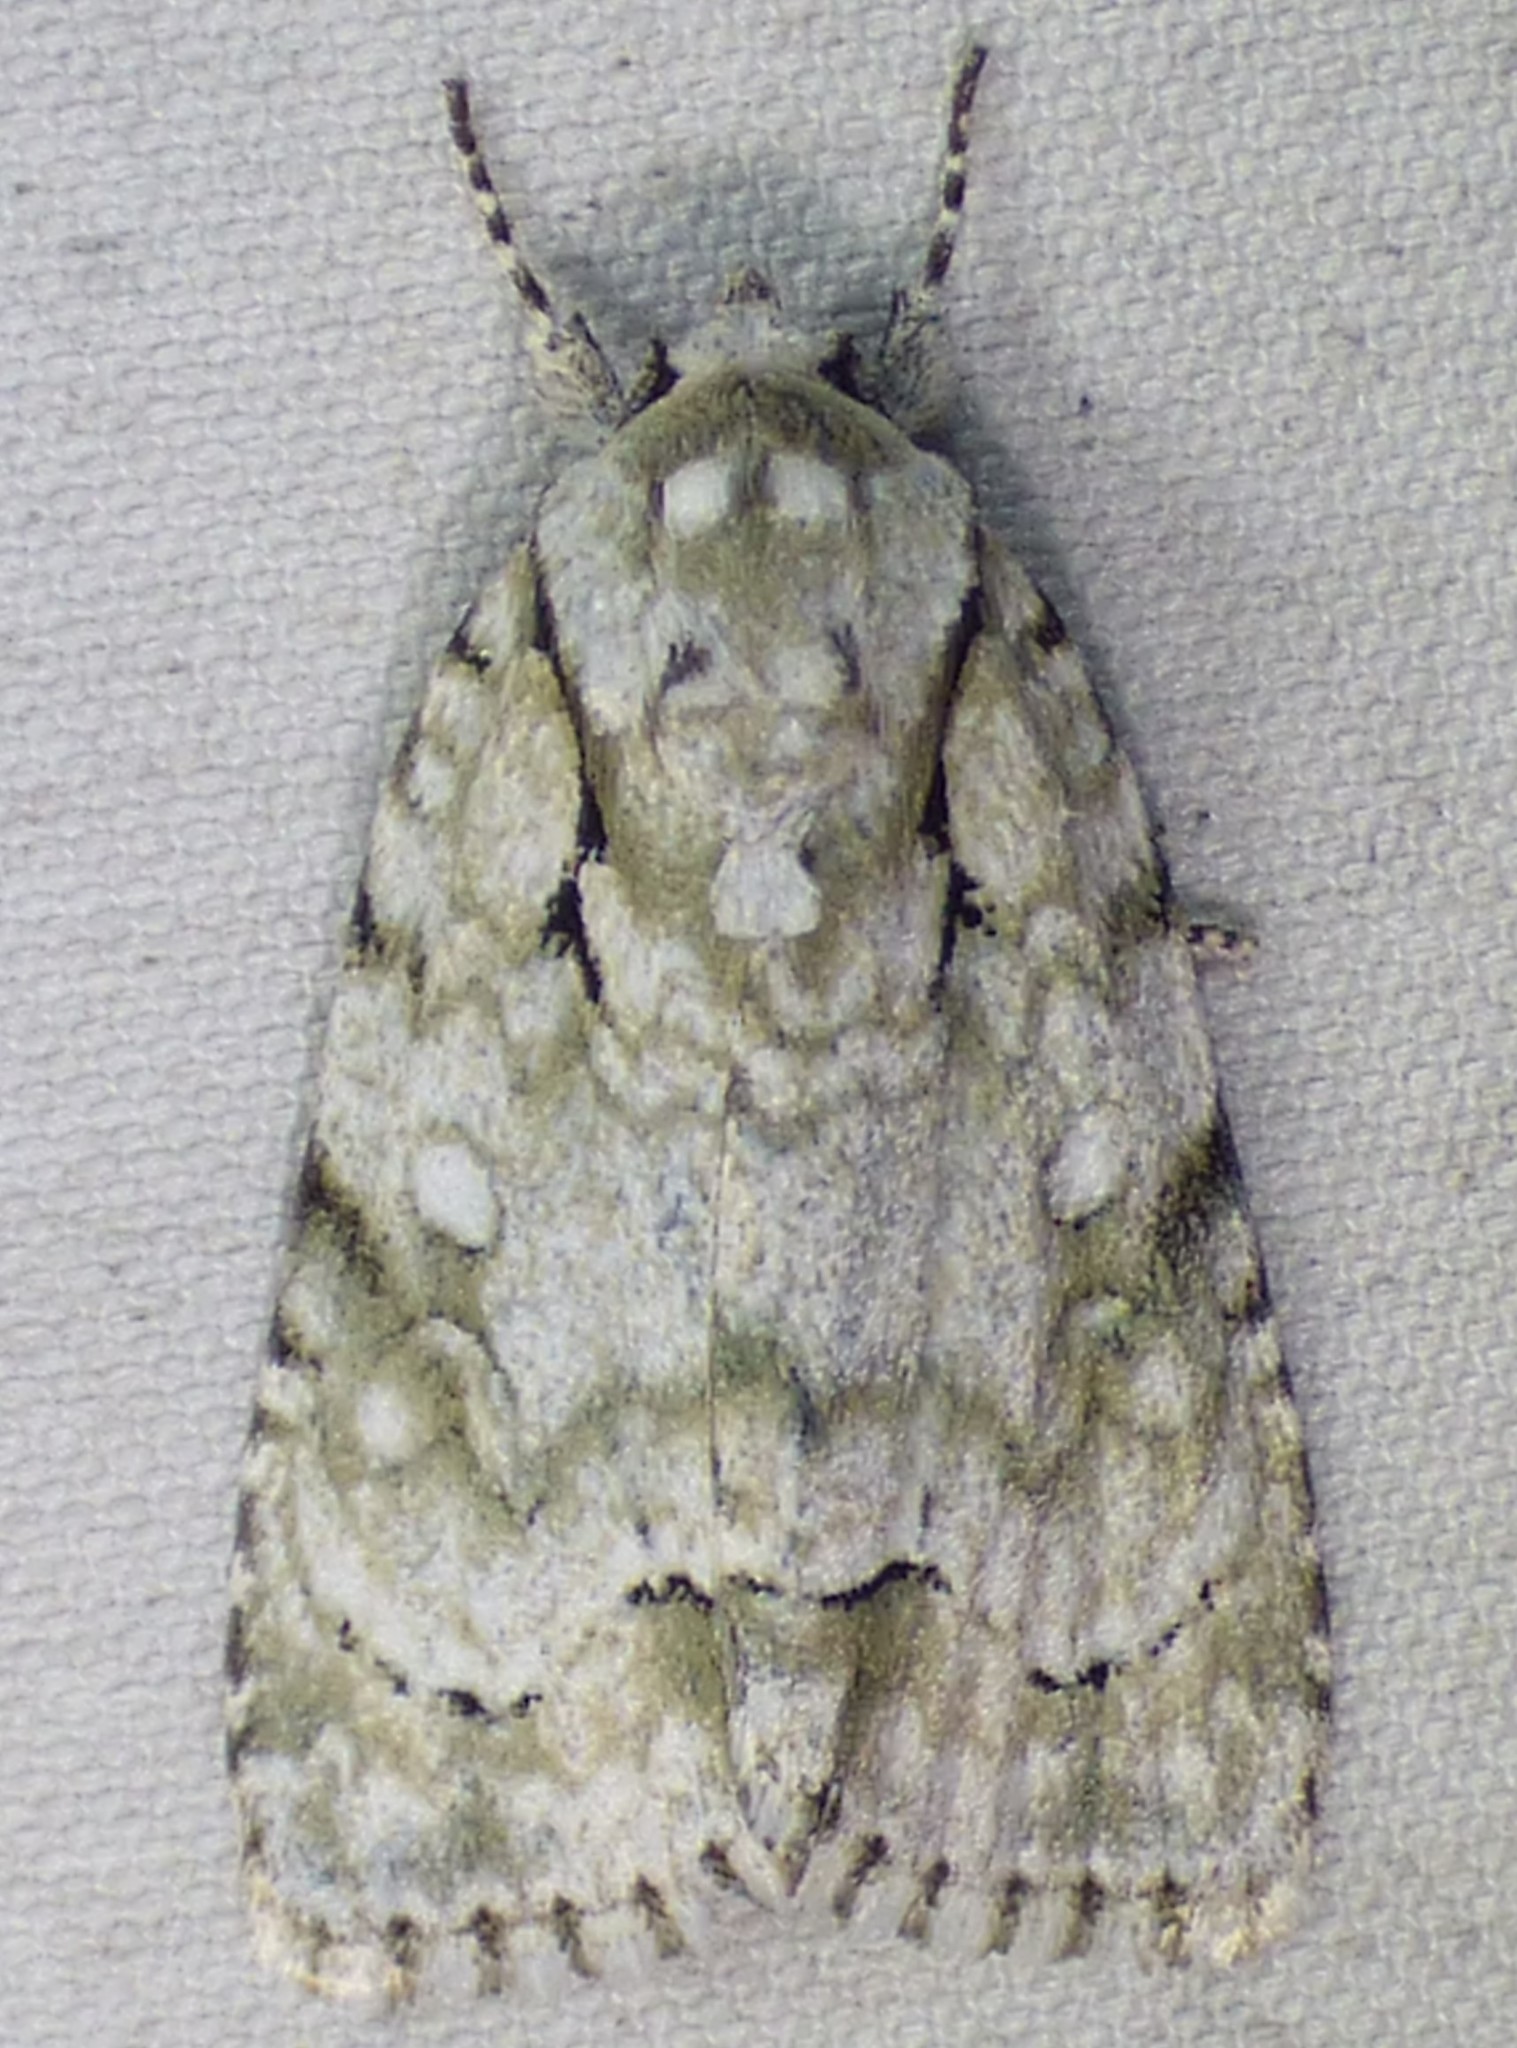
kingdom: Animalia
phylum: Arthropoda
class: Insecta
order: Lepidoptera
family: Noctuidae
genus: Acronicta
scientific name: Acronicta vinnula
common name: Delightful dagger
